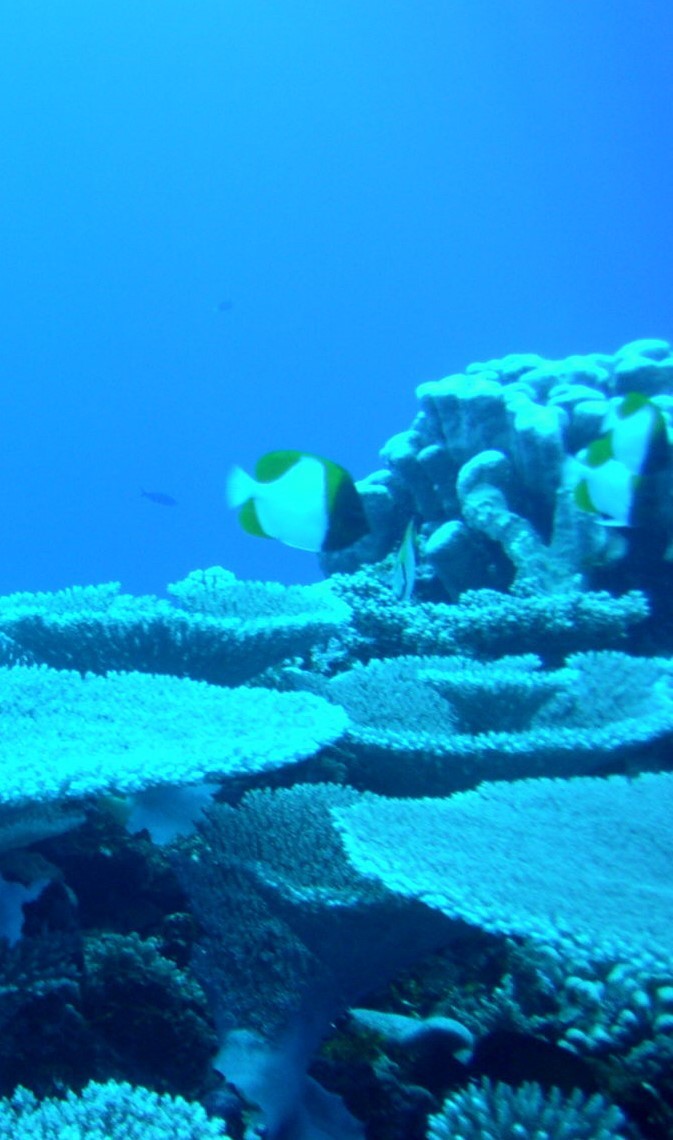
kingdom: Animalia
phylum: Chordata
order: Perciformes
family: Chaetodontidae
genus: Hemitaurichthys
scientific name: Hemitaurichthys polylepis
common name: Brushytoothed butterflyfish
